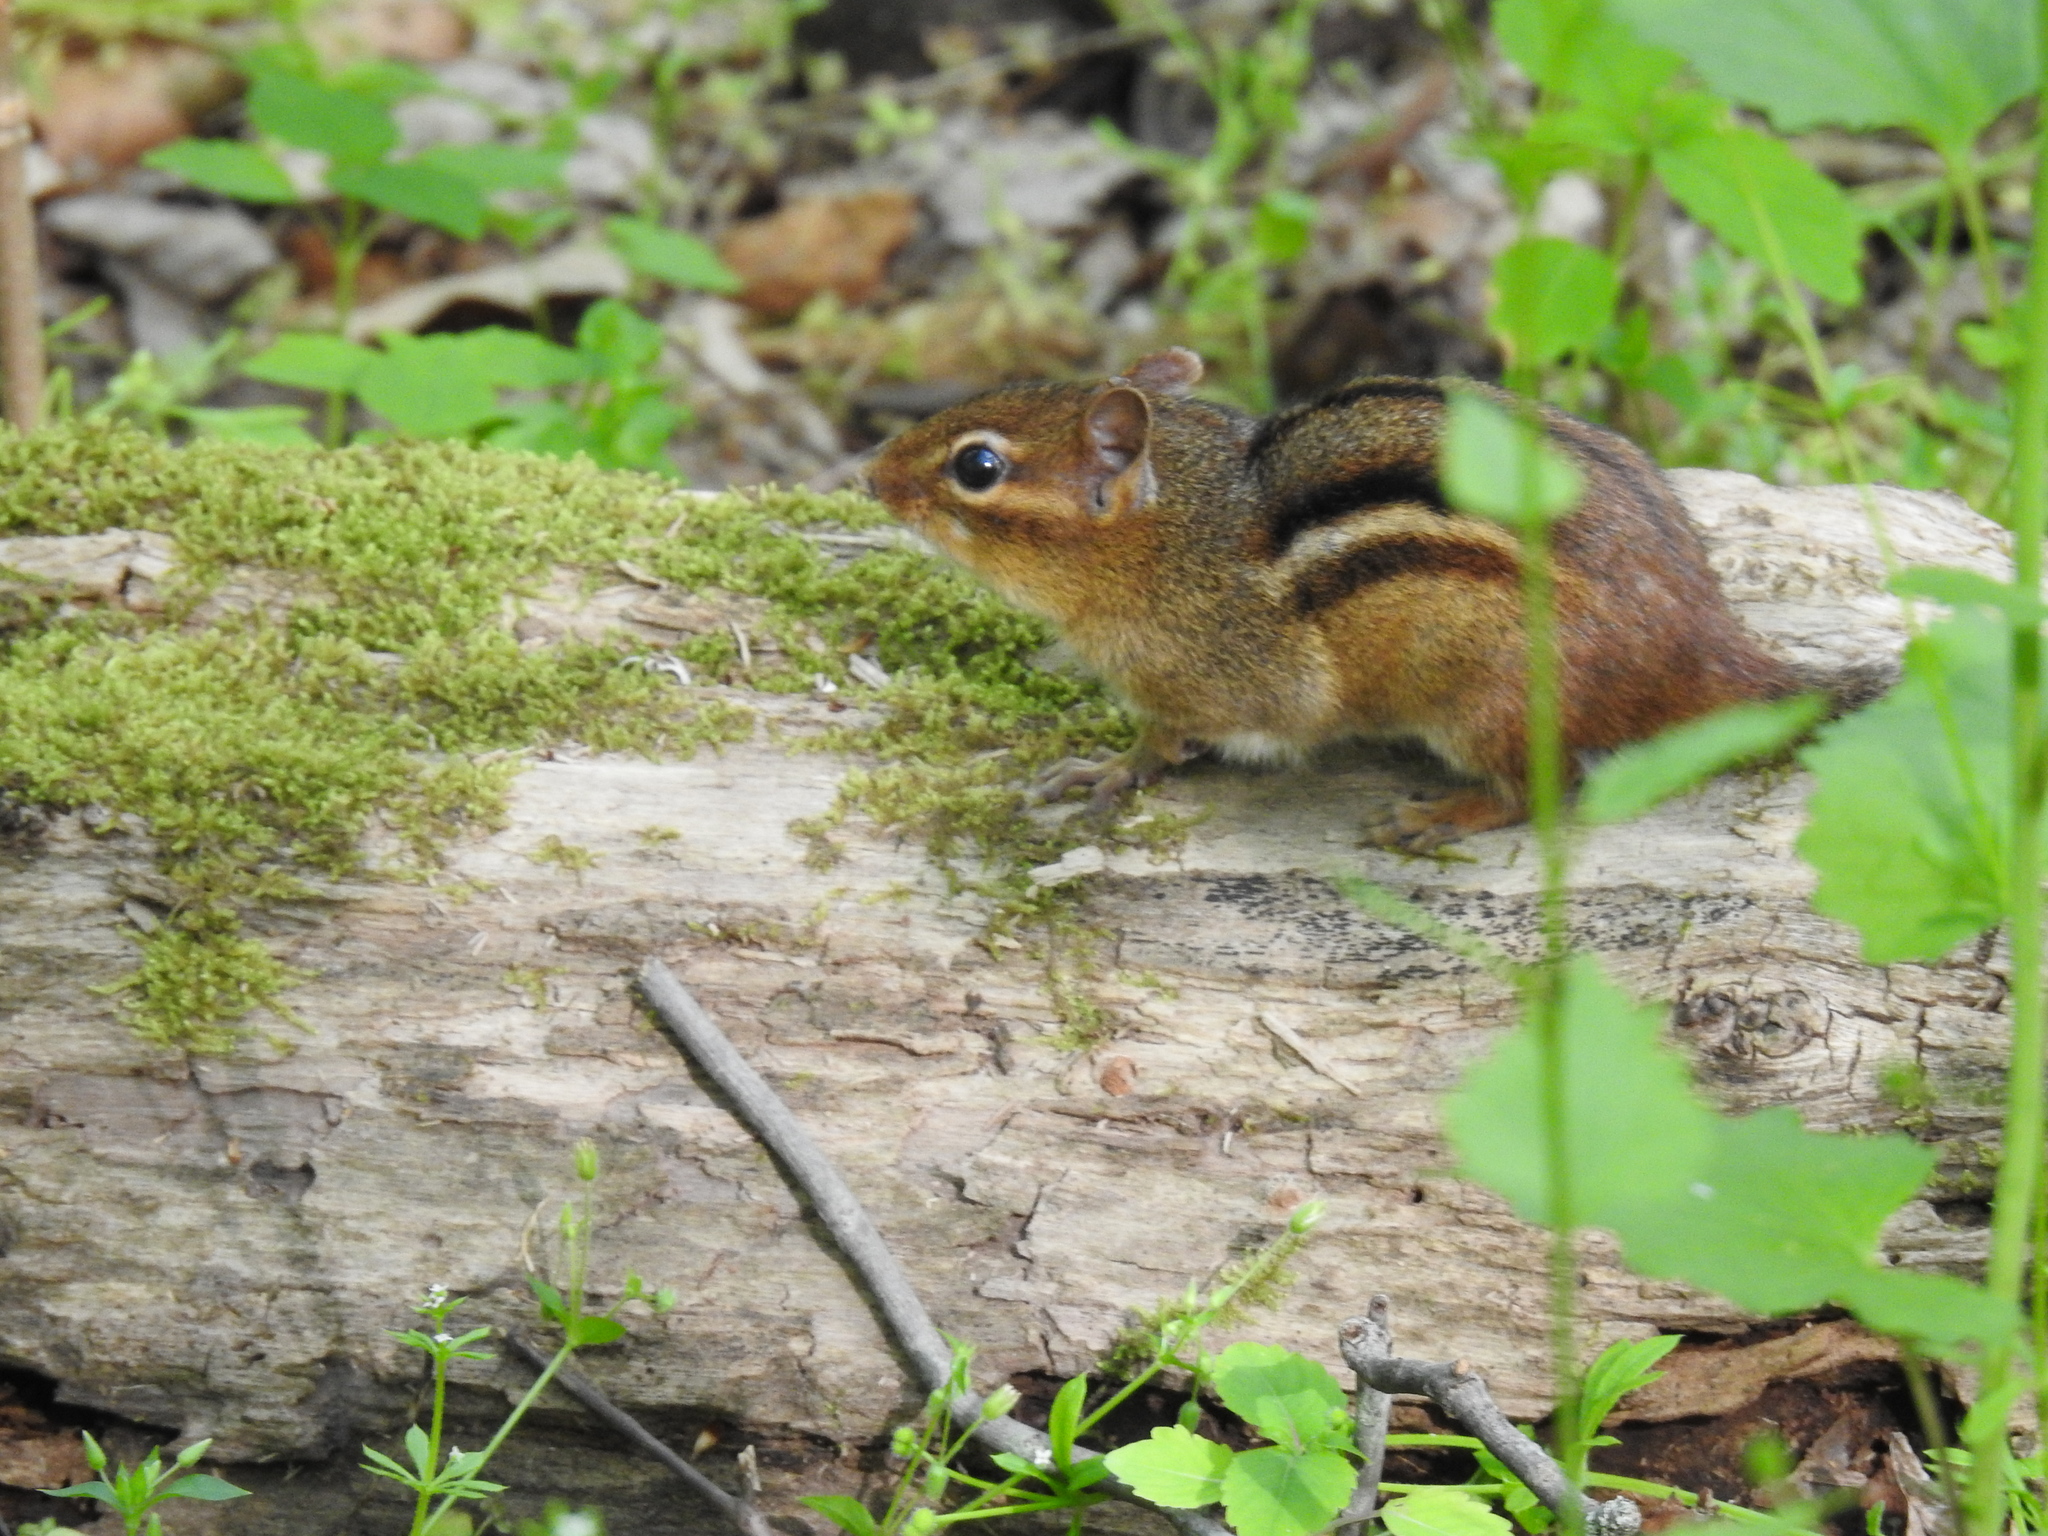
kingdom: Animalia
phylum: Chordata
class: Mammalia
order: Rodentia
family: Sciuridae
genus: Tamias
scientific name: Tamias striatus
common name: Eastern chipmunk
